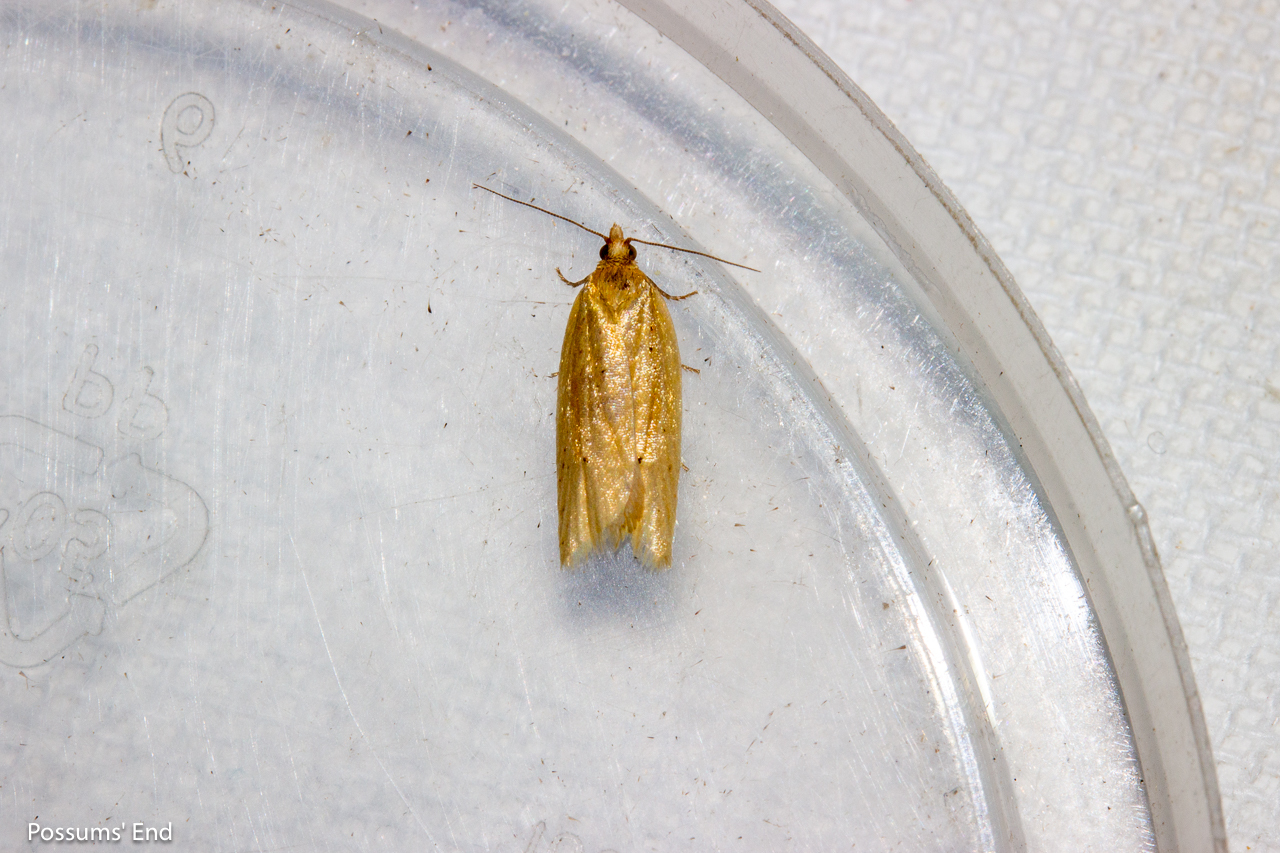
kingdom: Animalia
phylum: Arthropoda
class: Insecta
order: Lepidoptera
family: Tortricidae
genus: Clepsis
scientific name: Clepsis
